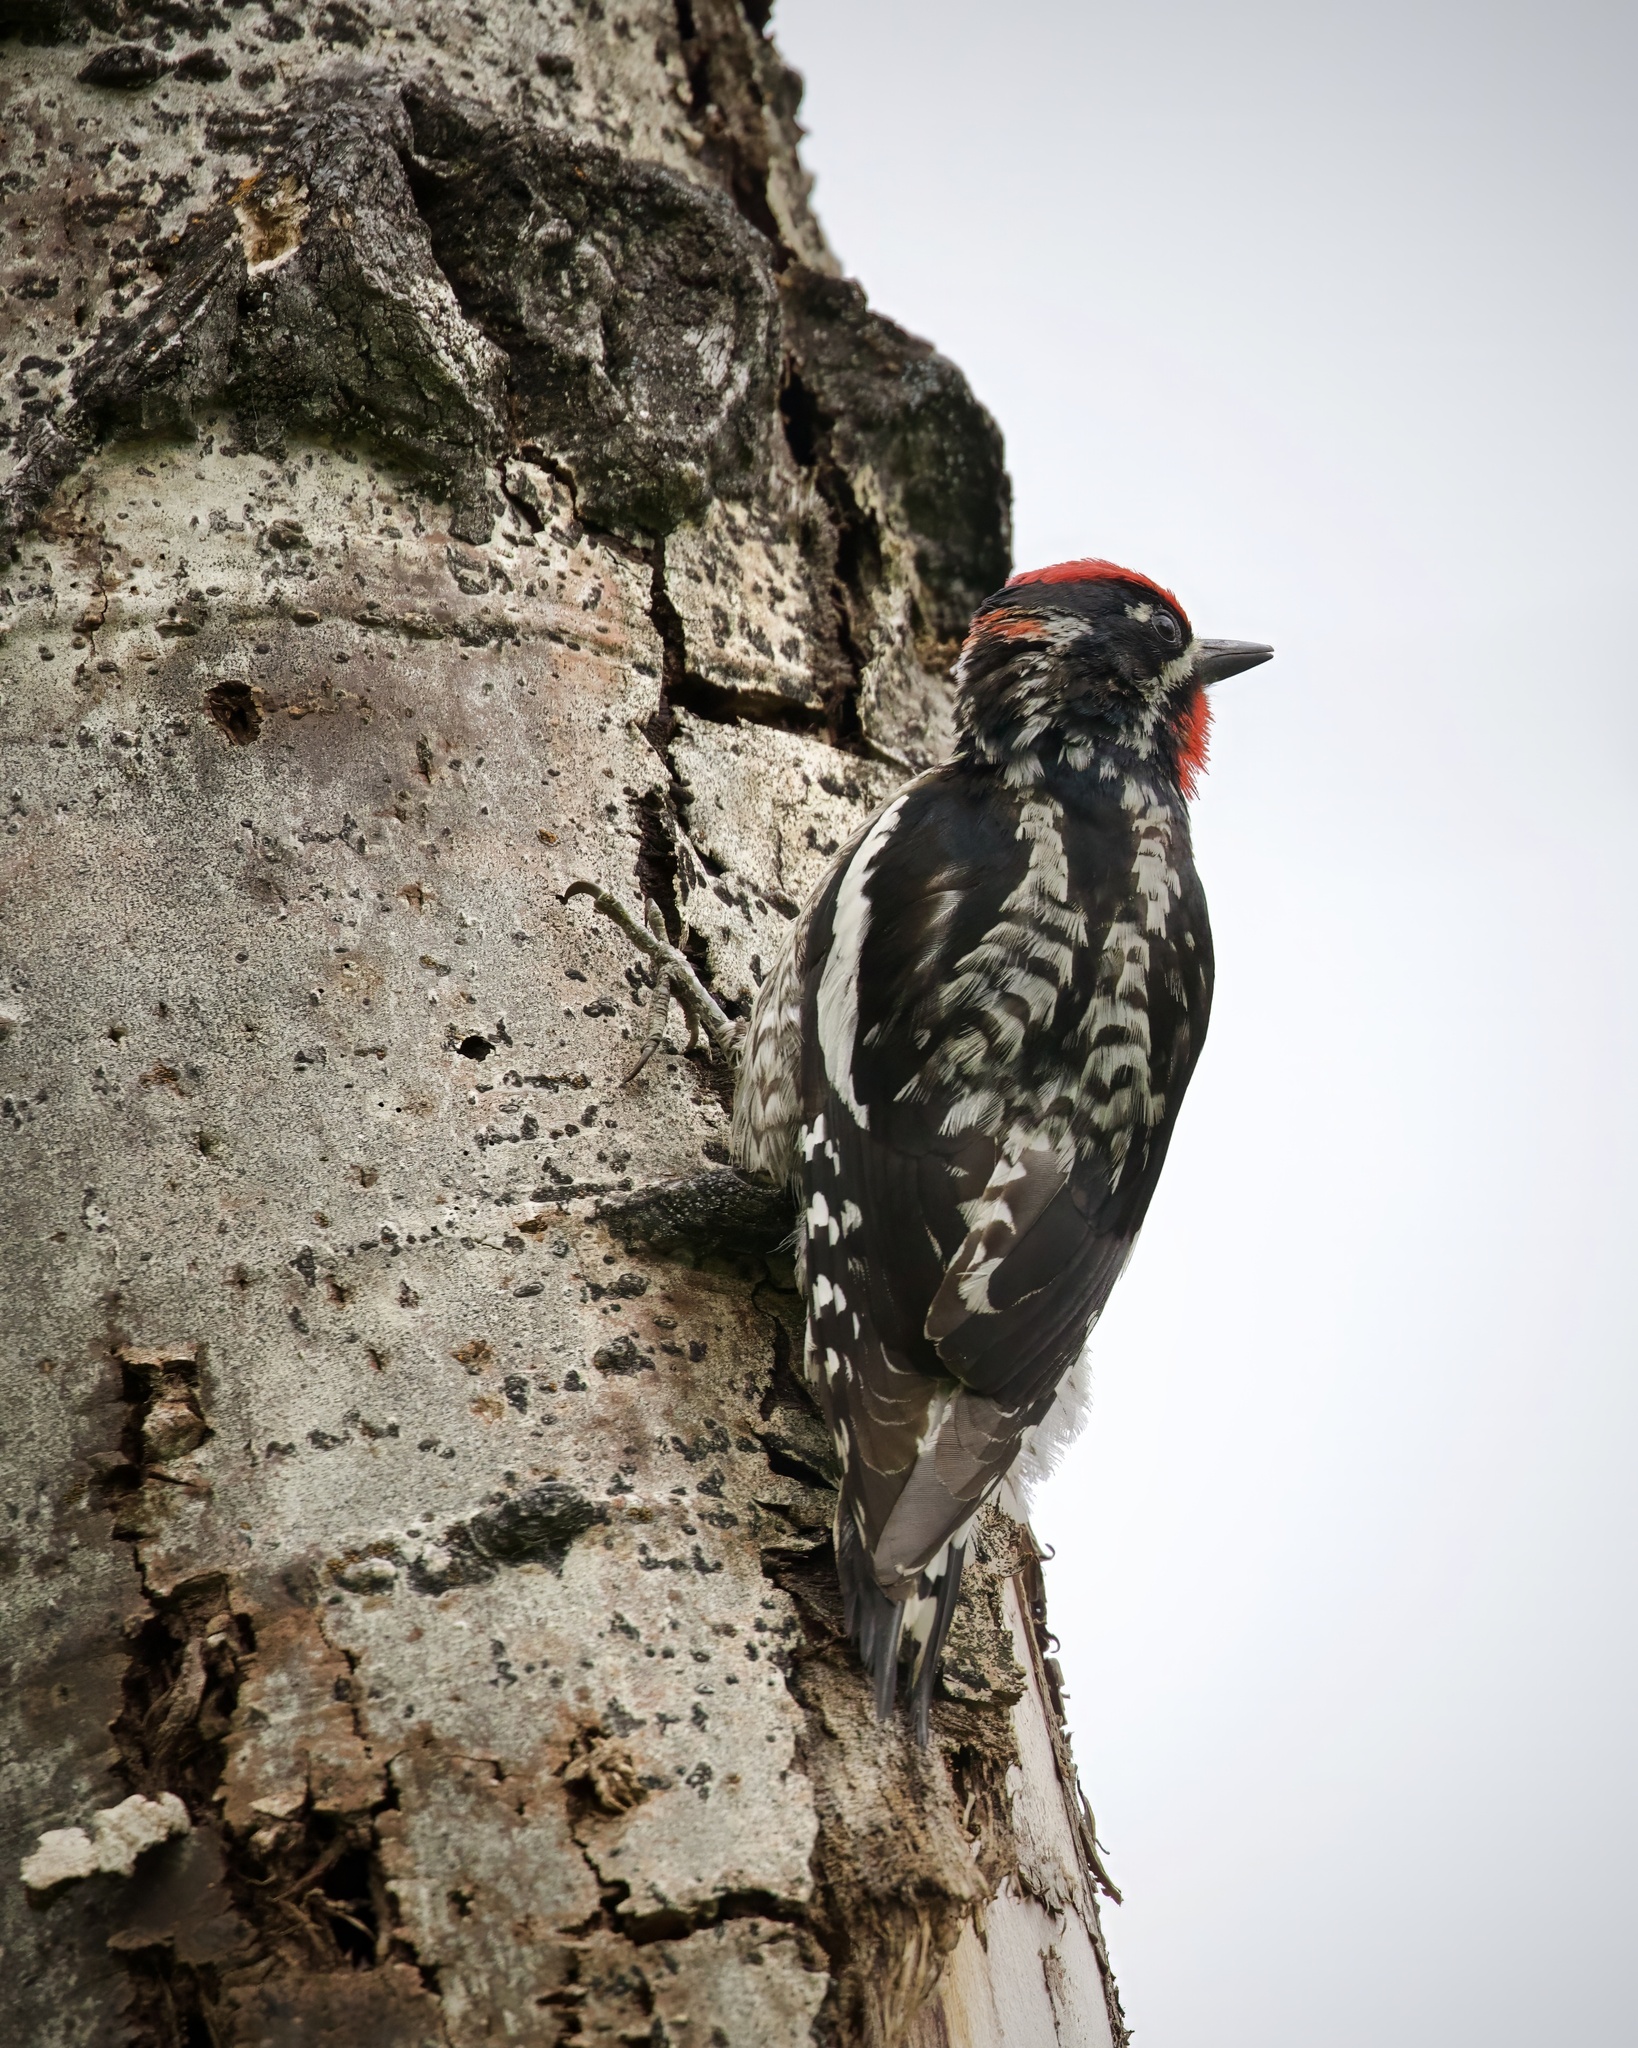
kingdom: Animalia
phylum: Chordata
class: Aves
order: Piciformes
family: Picidae
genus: Sphyrapicus
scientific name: Sphyrapicus nuchalis
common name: Red-naped sapsucker
